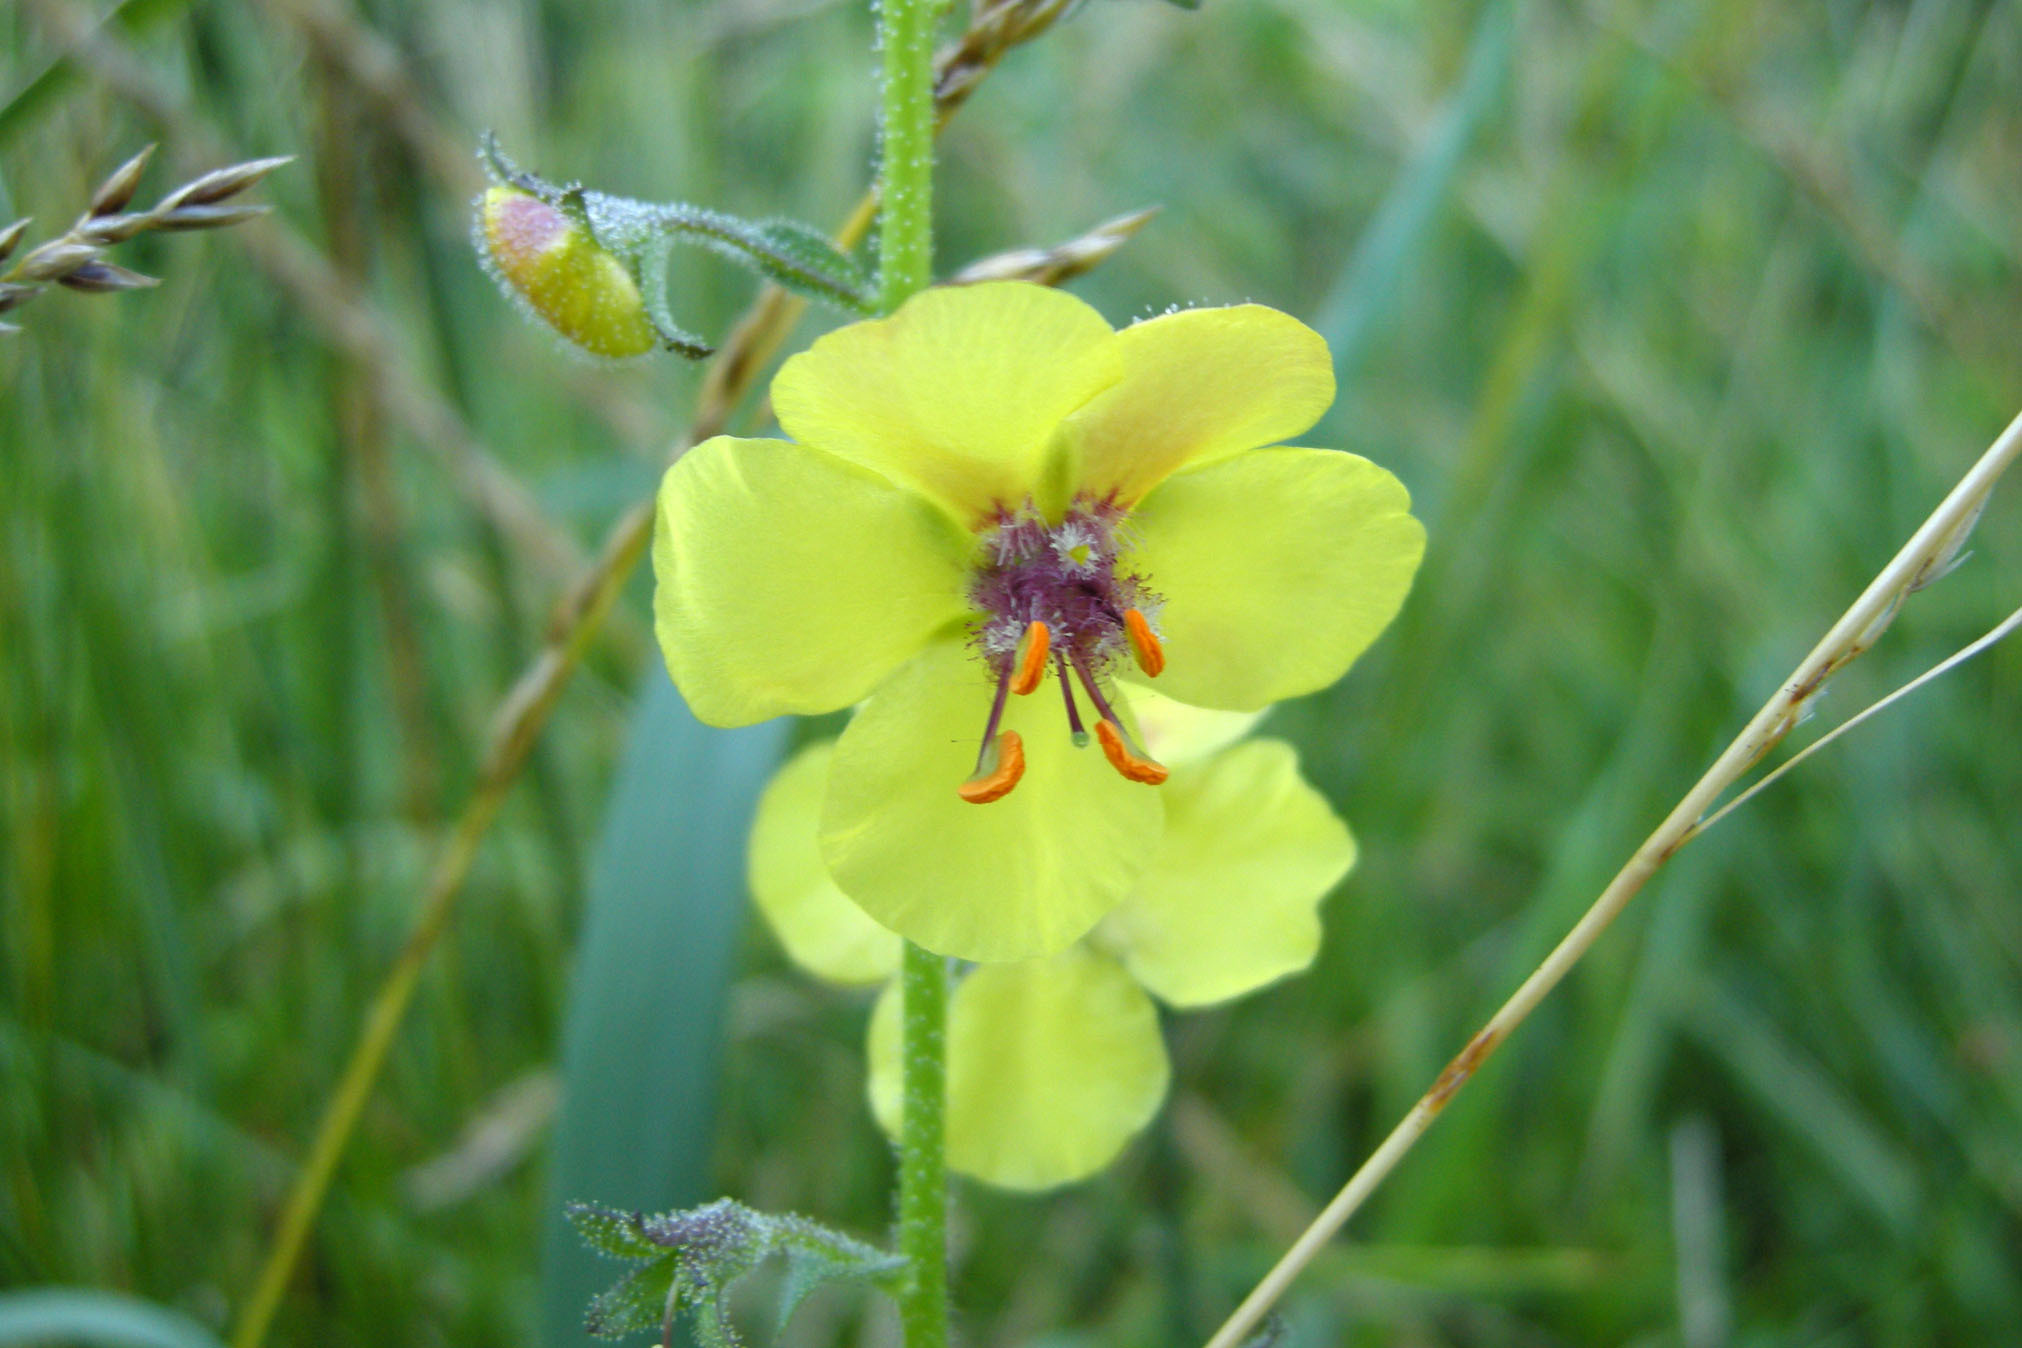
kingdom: Plantae
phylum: Tracheophyta
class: Magnoliopsida
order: Lamiales
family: Scrophulariaceae
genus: Verbascum
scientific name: Verbascum blattaria
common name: Moth mullein
